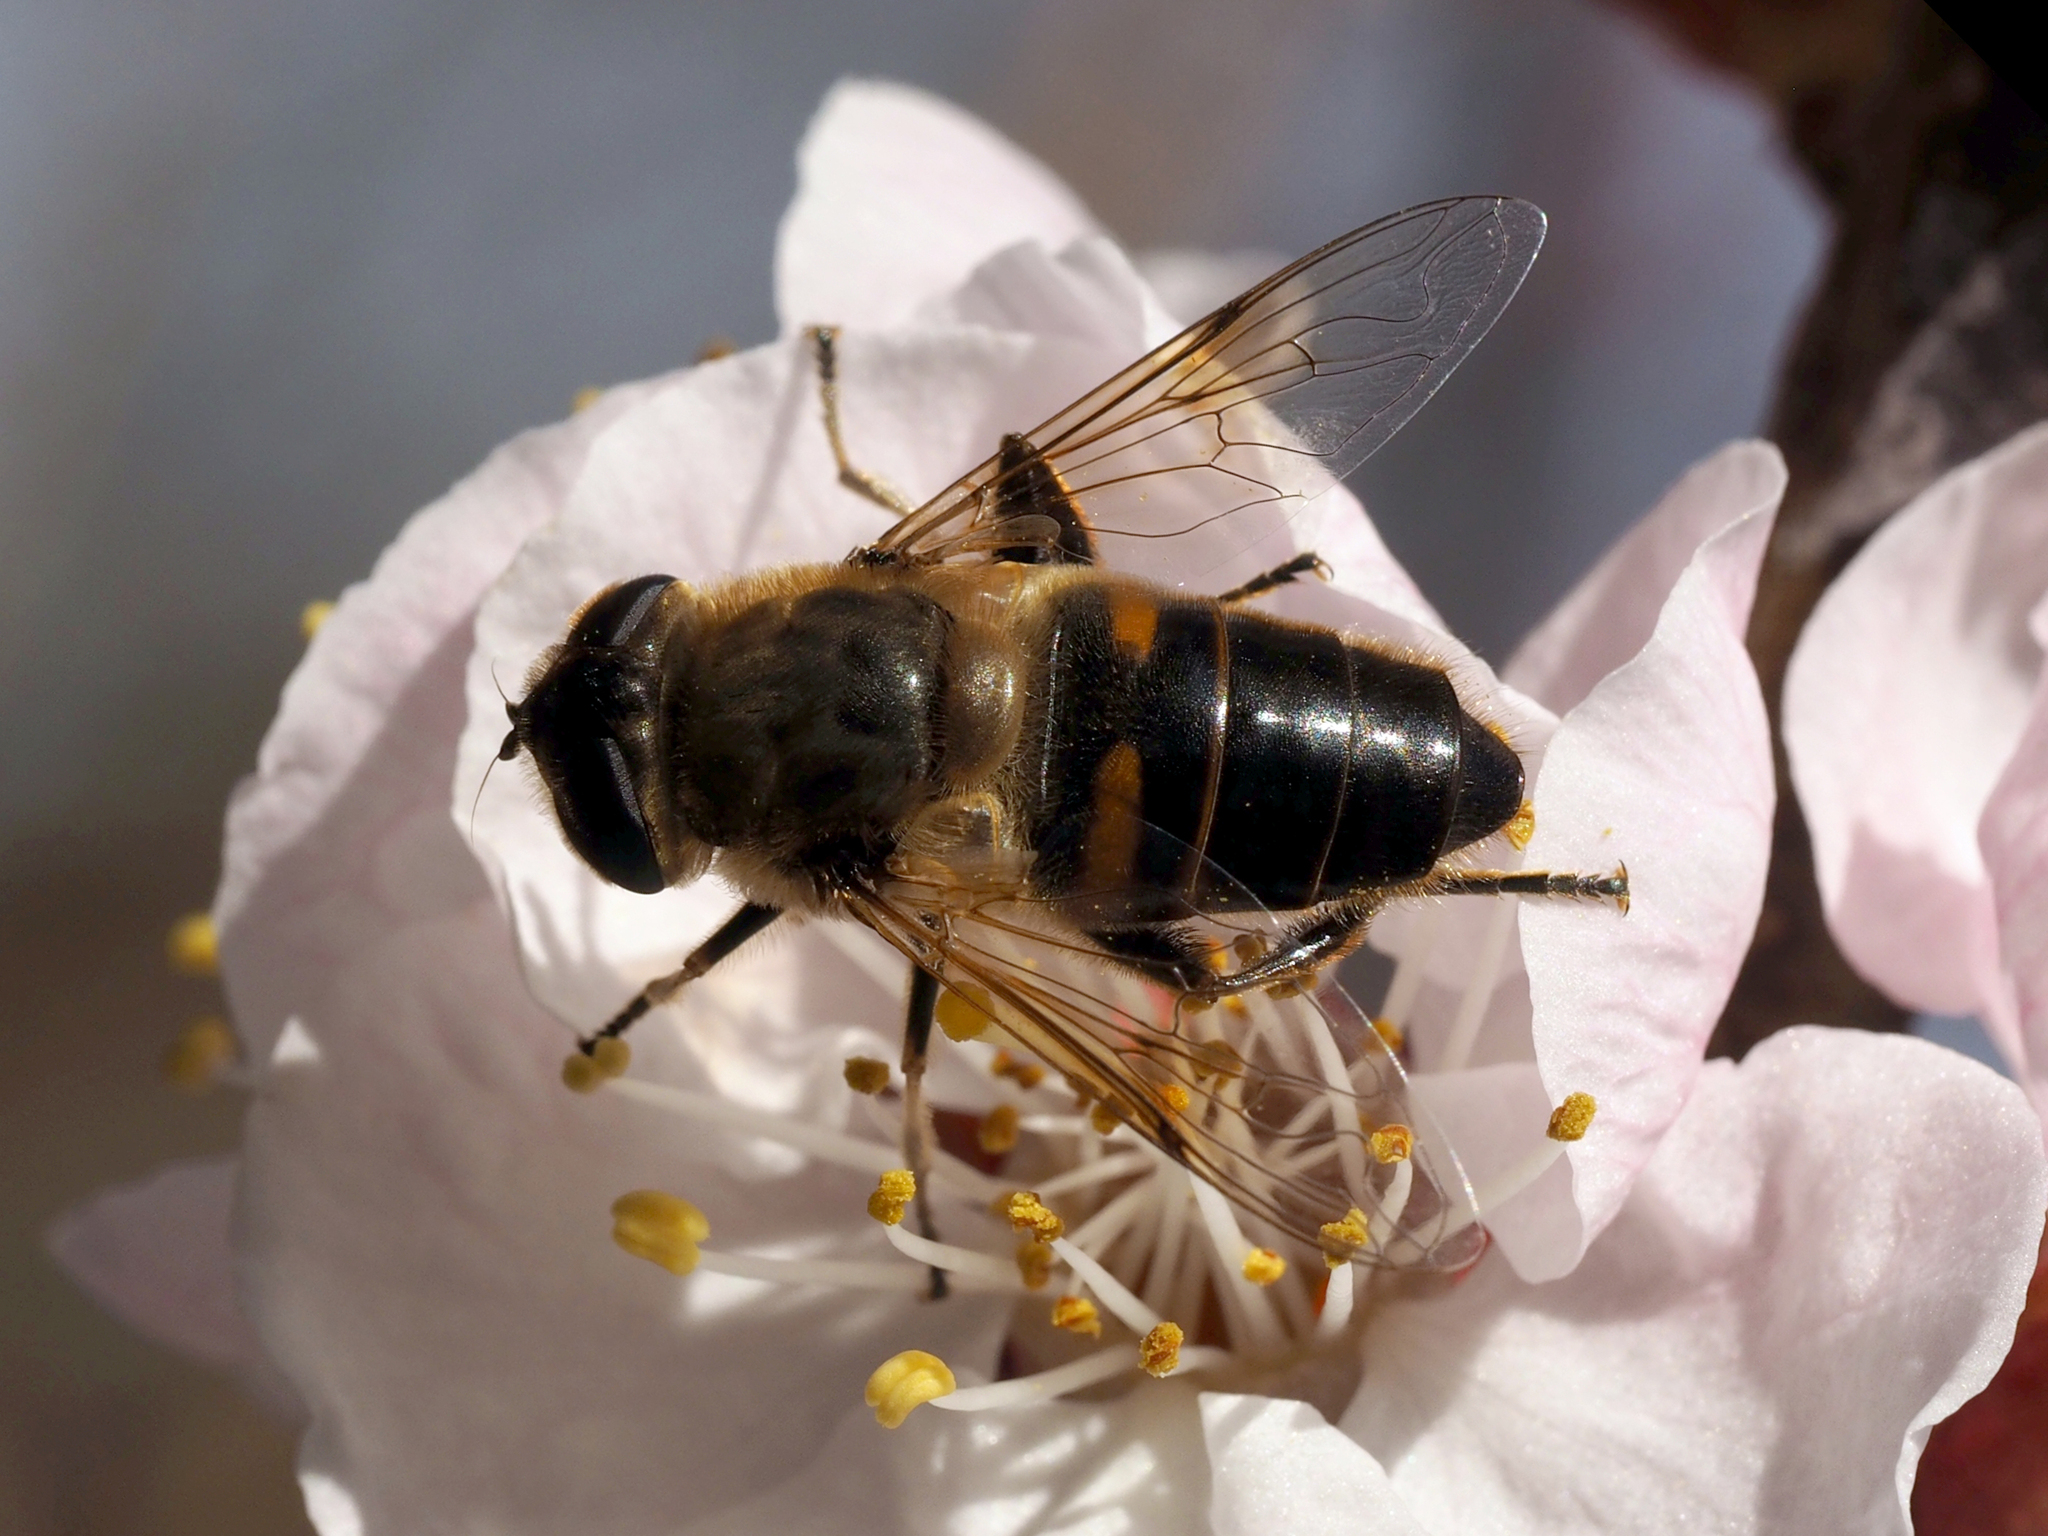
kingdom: Animalia
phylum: Arthropoda
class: Insecta
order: Diptera
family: Syrphidae
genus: Eristalis
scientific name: Eristalis tenax
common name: Drone fly
